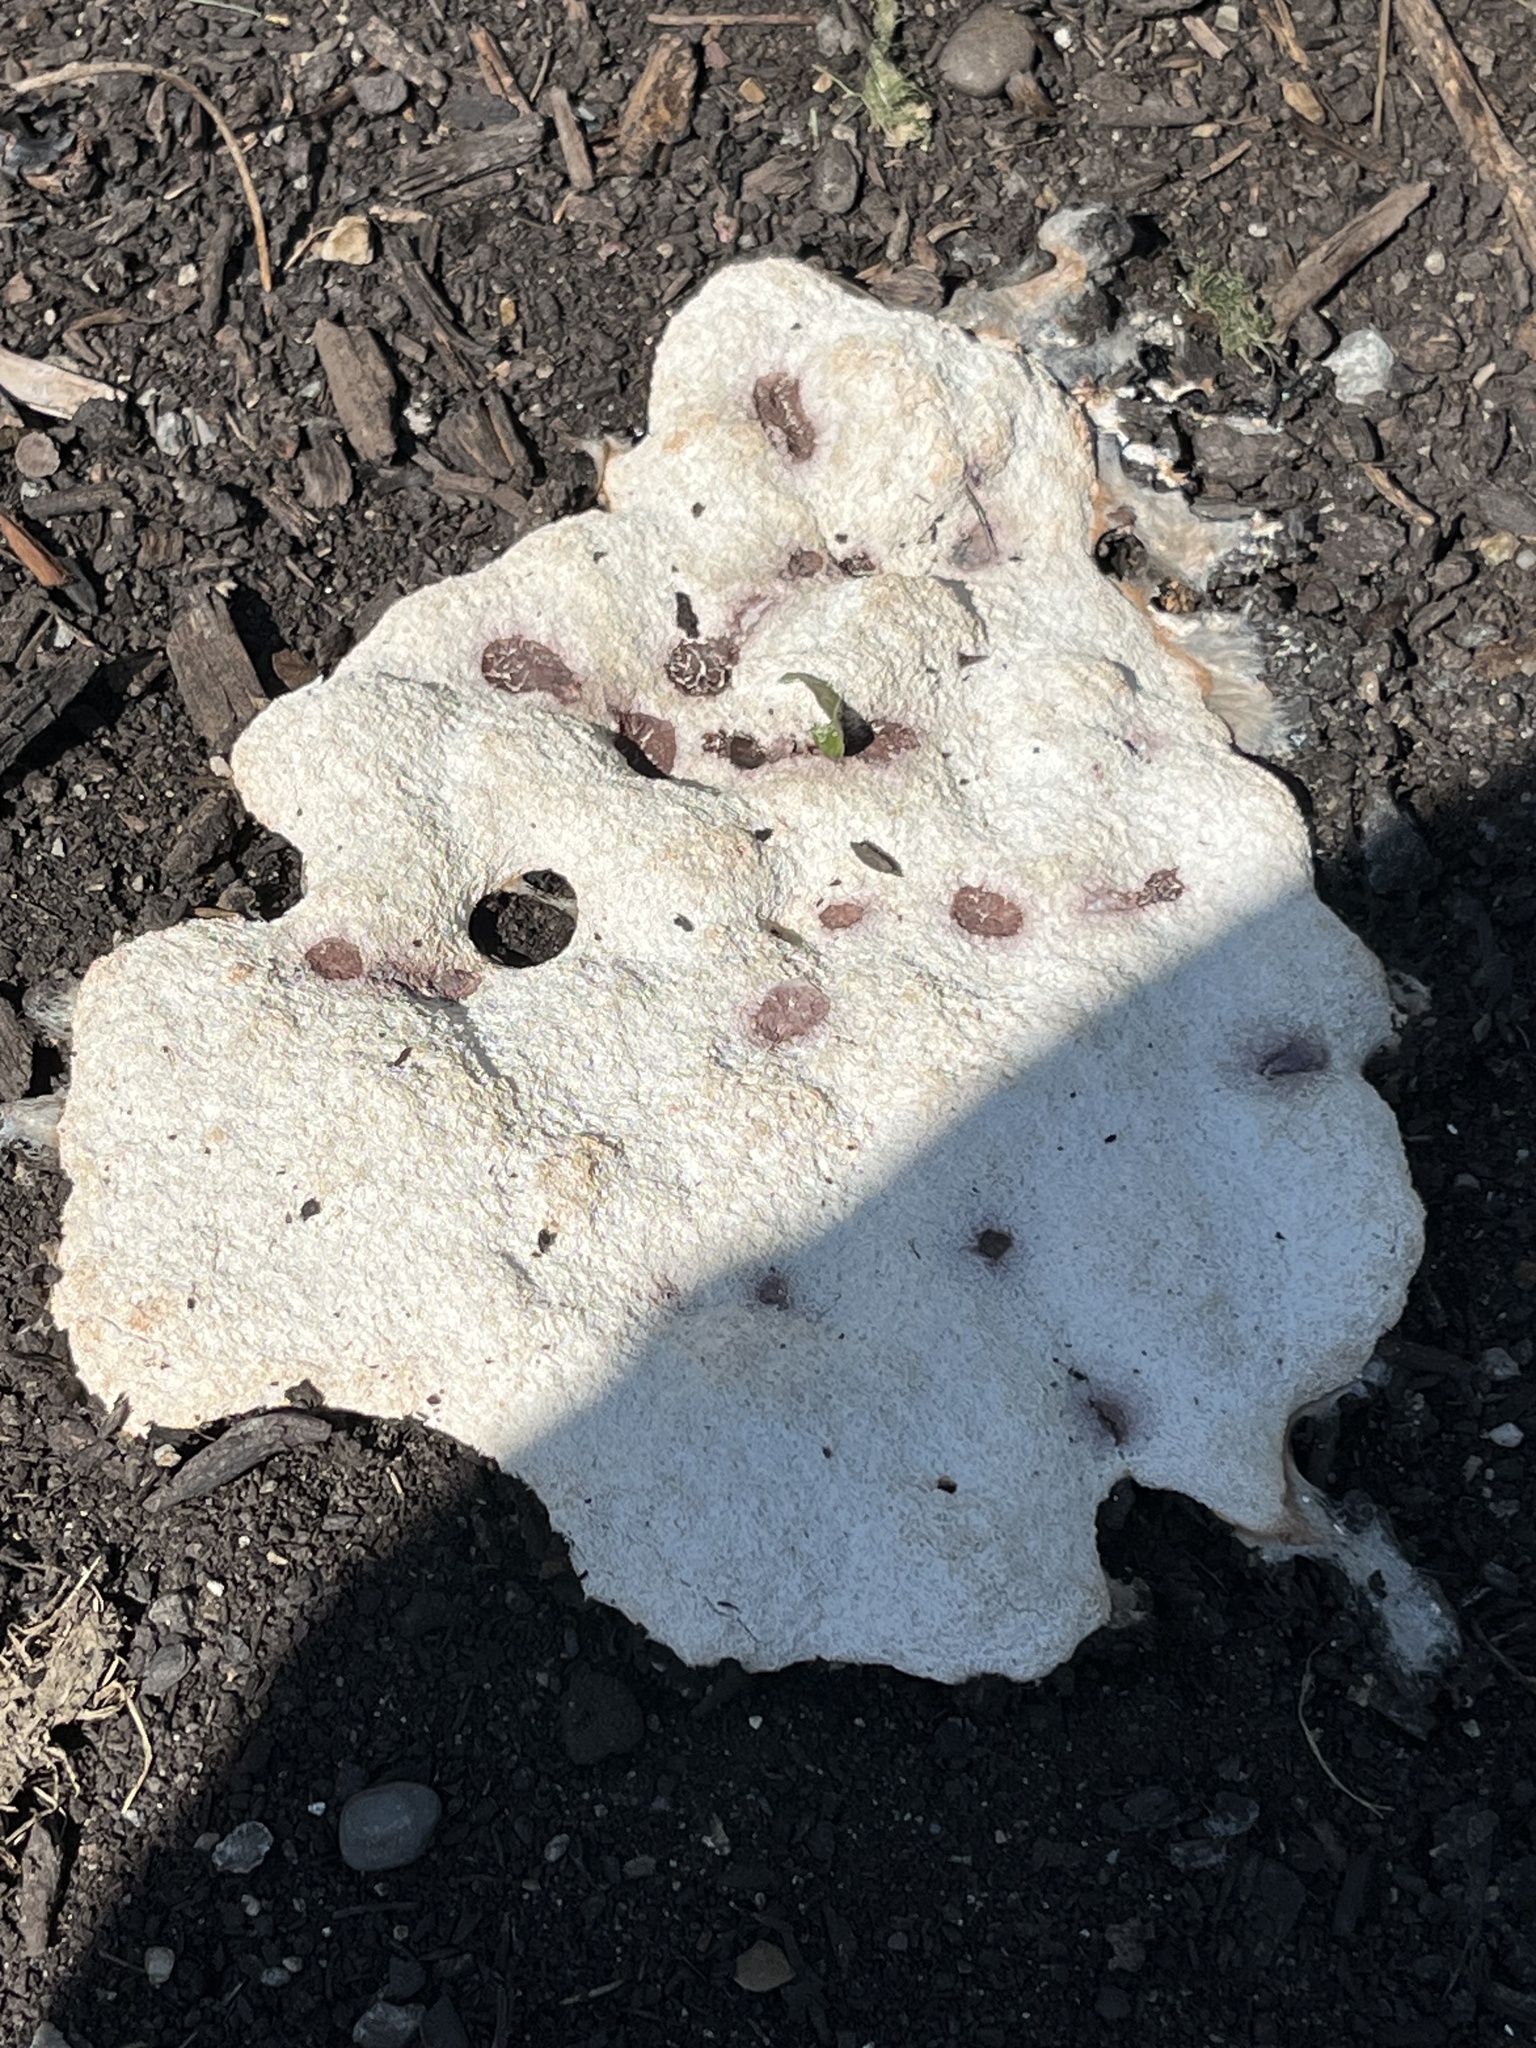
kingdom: Protozoa
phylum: Mycetozoa
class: Myxomycetes
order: Physarales
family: Physaraceae
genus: Fuligo
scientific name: Fuligo septica
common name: Dog vomit slime mold
